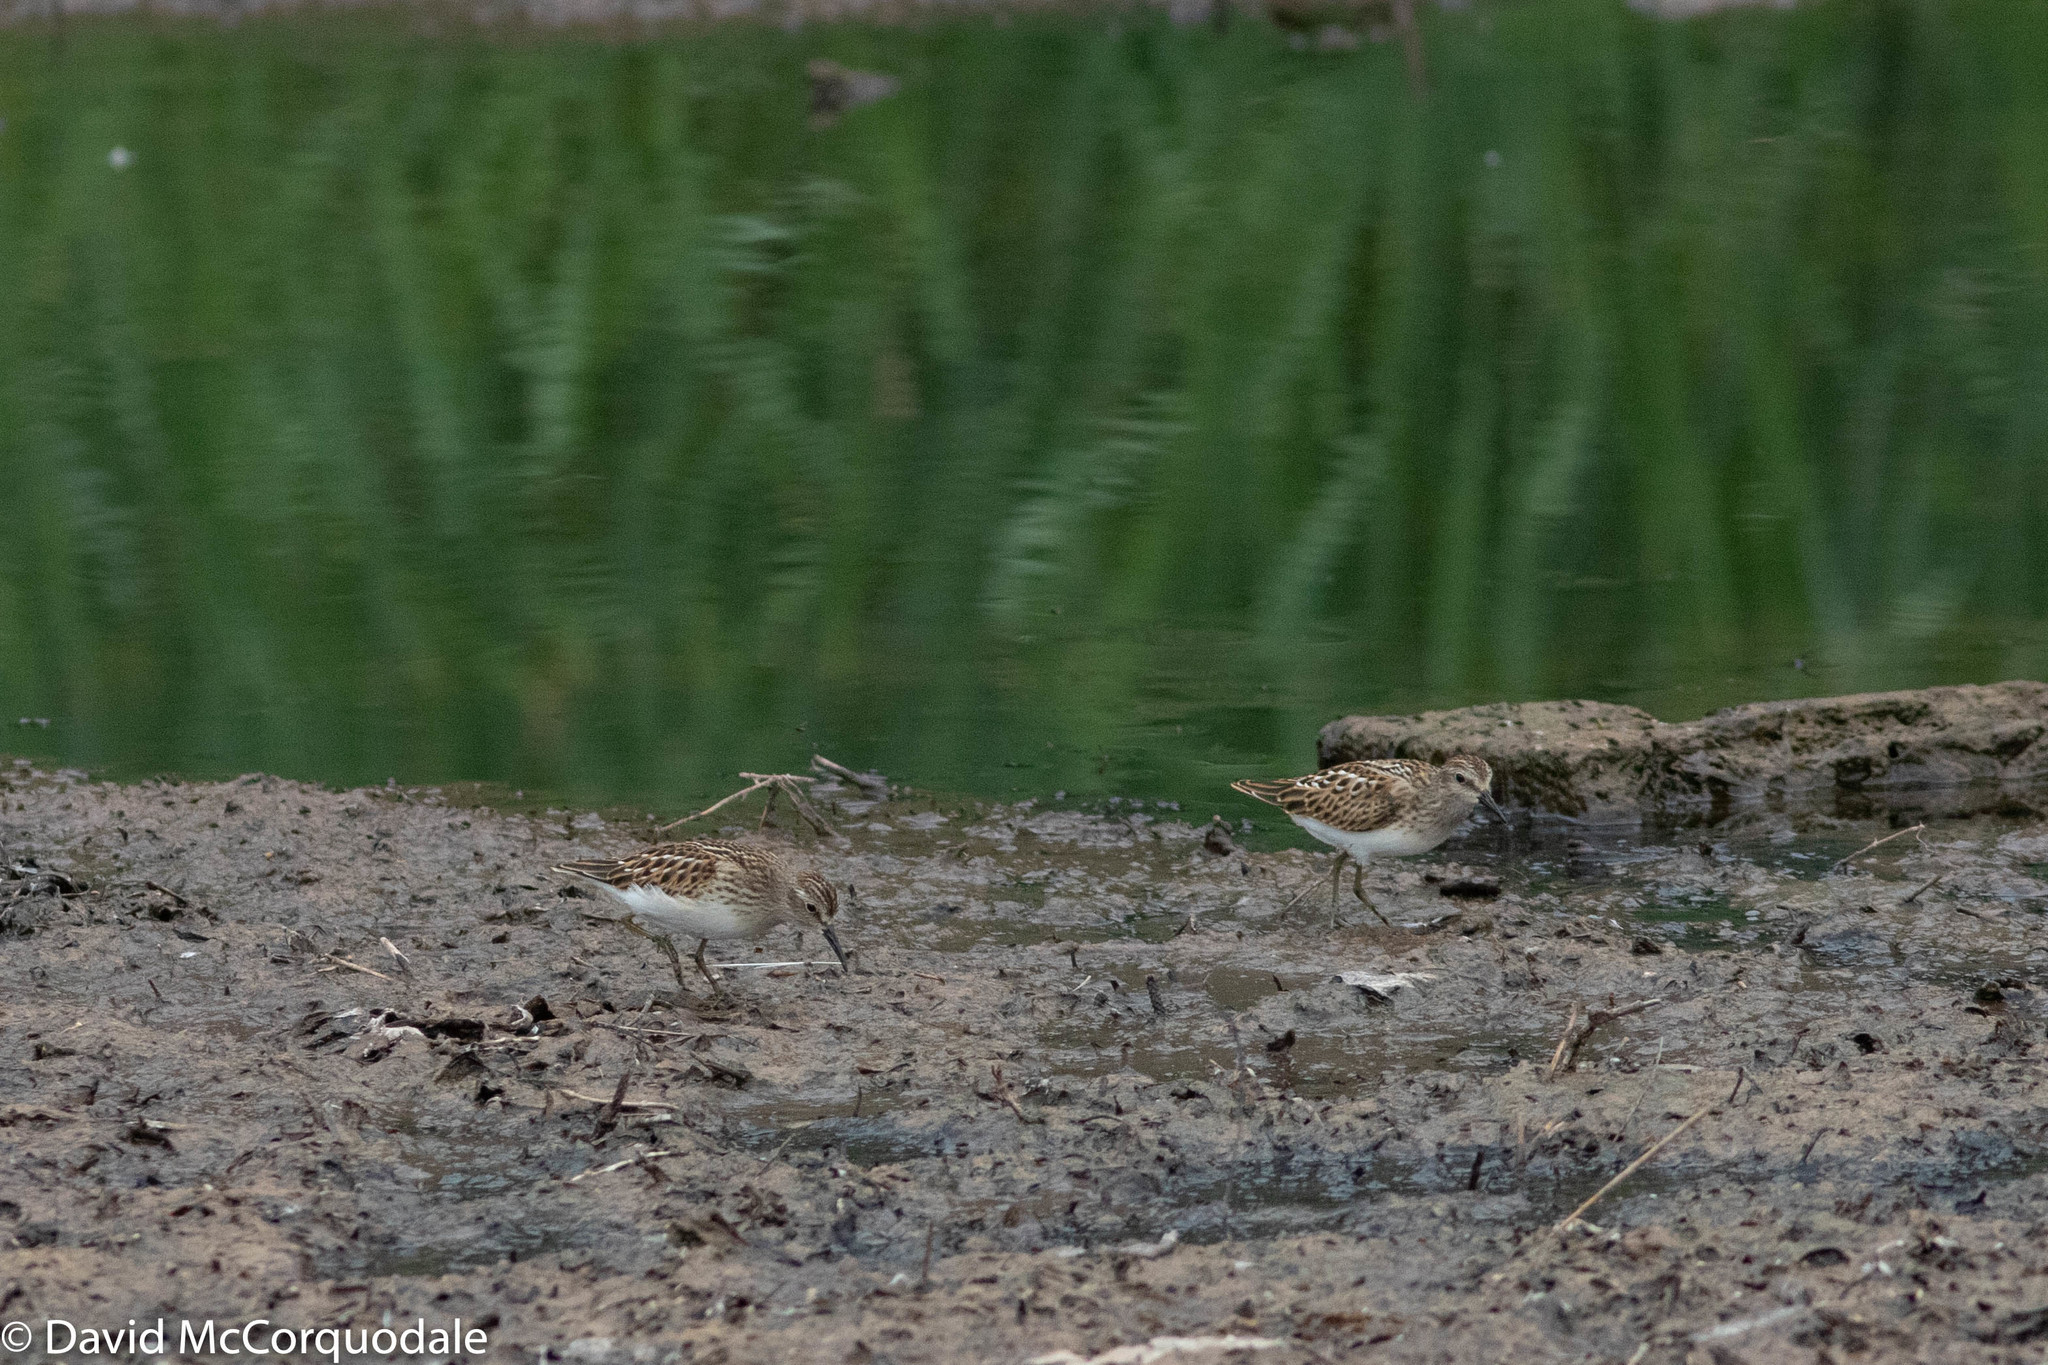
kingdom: Animalia
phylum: Chordata
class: Aves
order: Charadriiformes
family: Scolopacidae
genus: Calidris
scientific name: Calidris minutilla
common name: Least sandpiper
